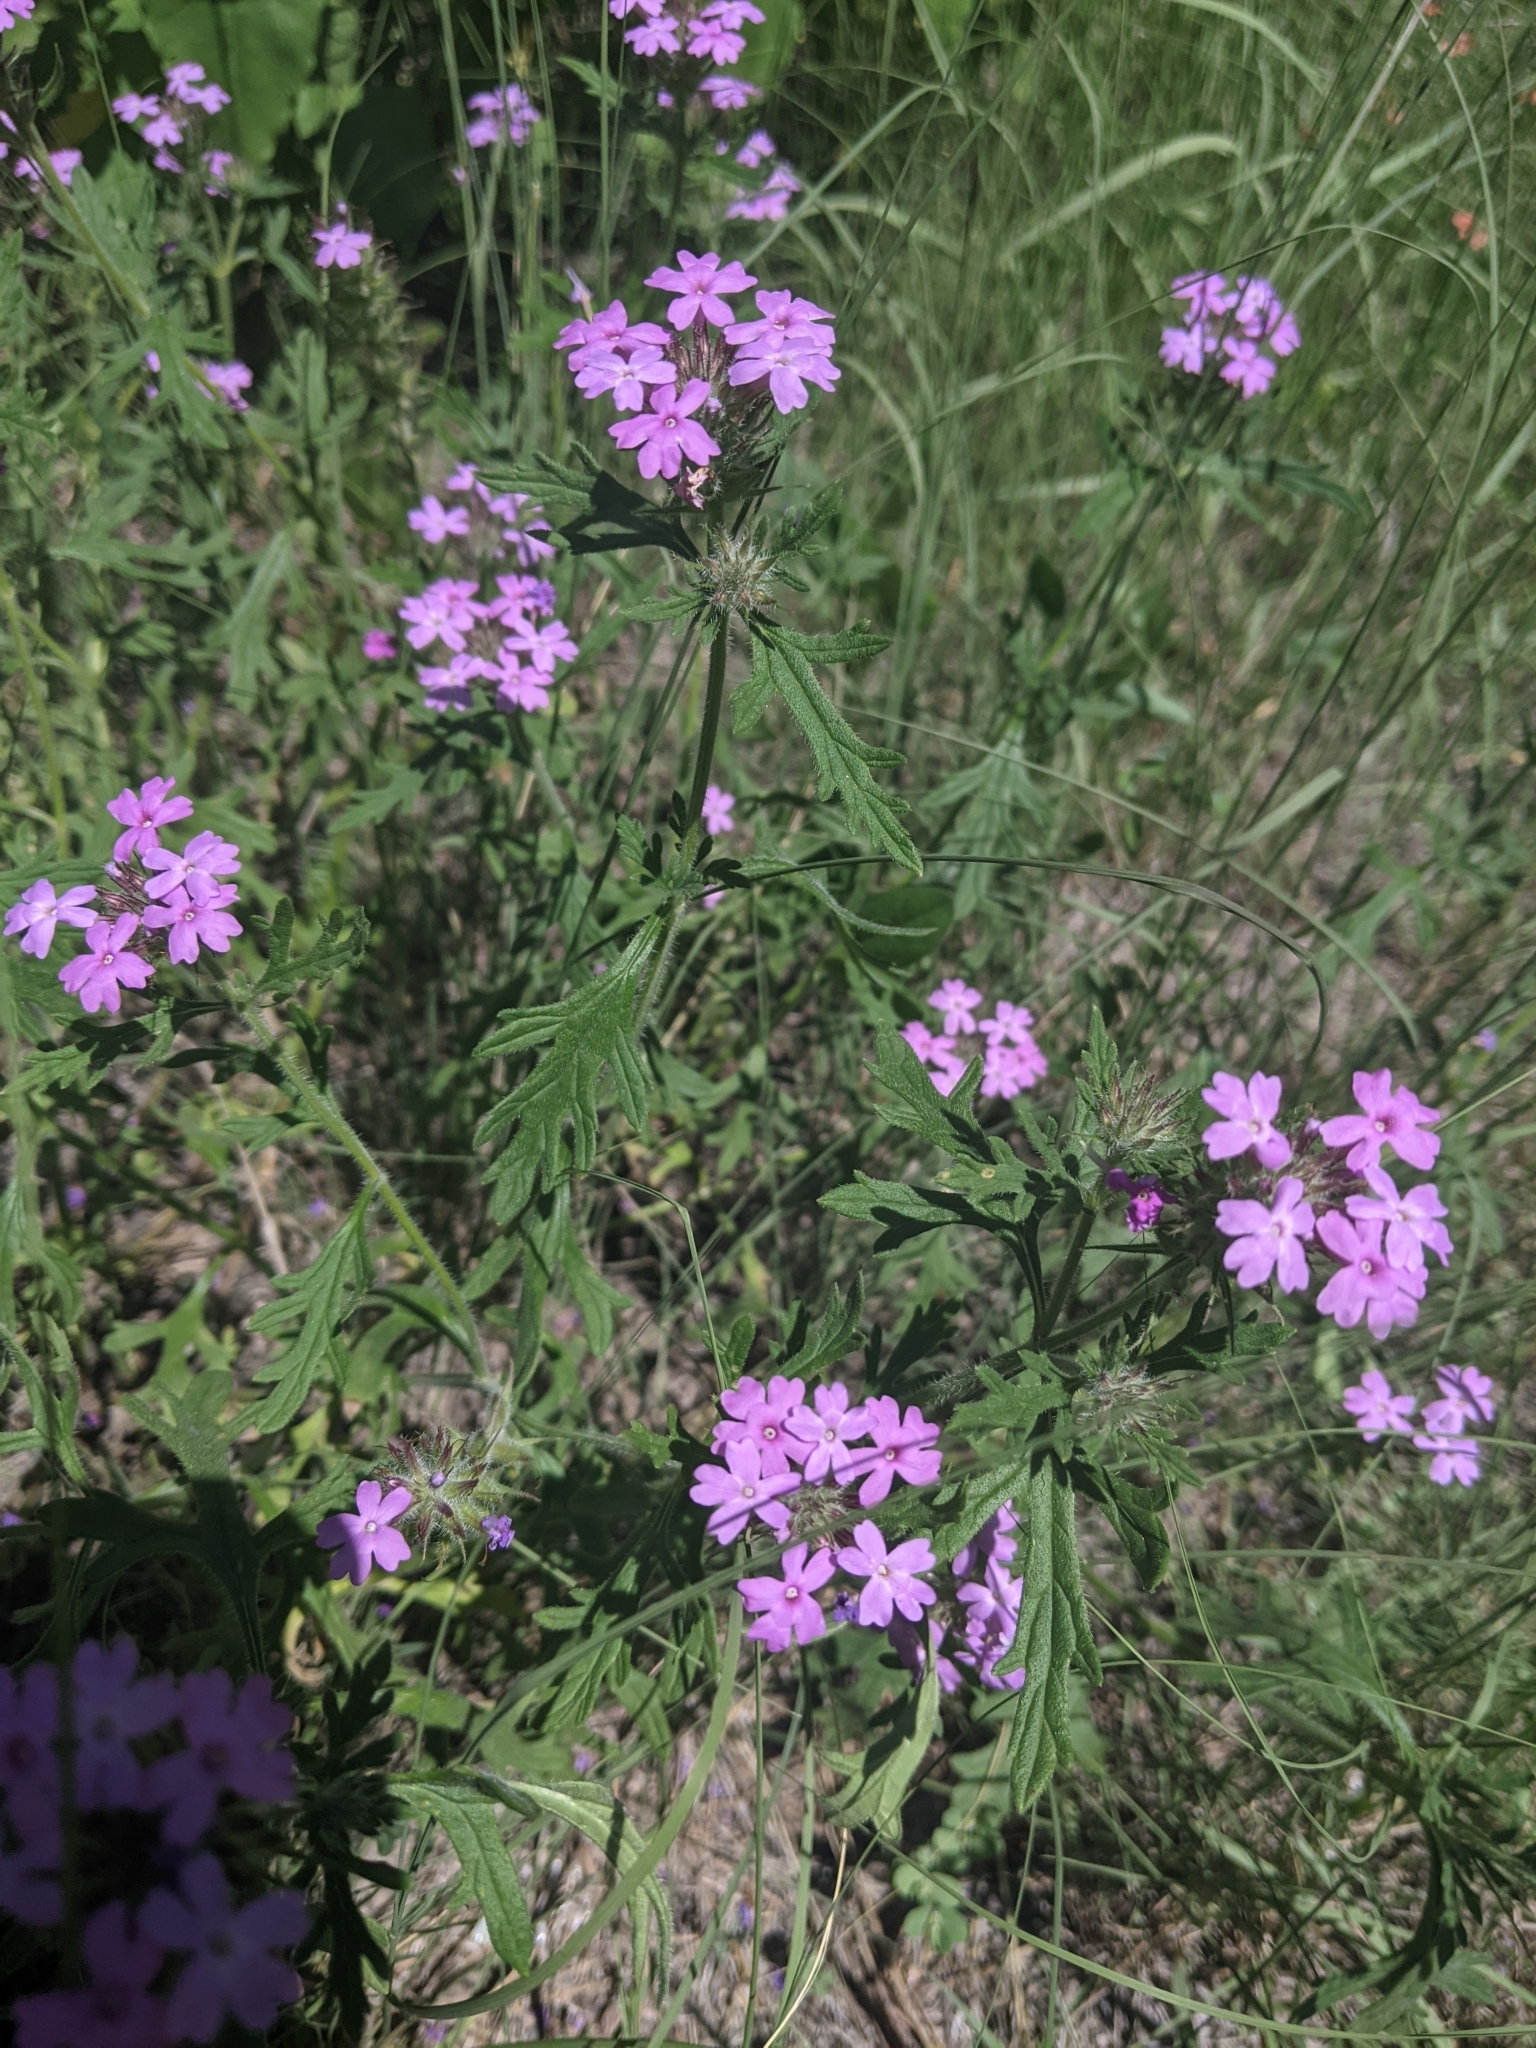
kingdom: Plantae
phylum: Tracheophyta
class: Magnoliopsida
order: Lamiales
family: Verbenaceae
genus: Verbena
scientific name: Verbena chiricahensis
